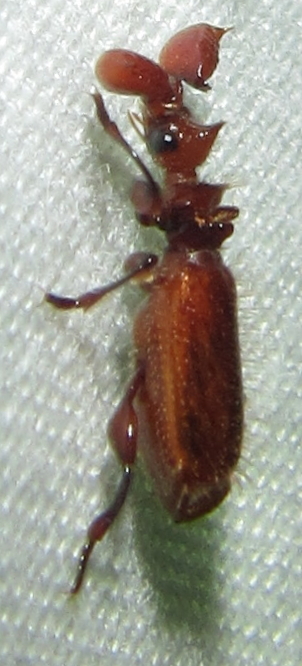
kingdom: Animalia
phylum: Arthropoda
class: Insecta
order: Coleoptera
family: Carabidae
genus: Paussus
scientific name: Paussus bohemani
